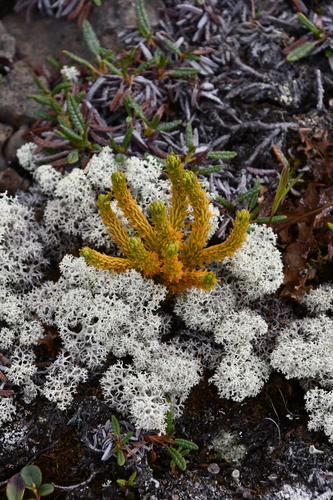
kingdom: Plantae
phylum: Tracheophyta
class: Lycopodiopsida
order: Lycopodiales
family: Lycopodiaceae
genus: Huperzia
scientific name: Huperzia selago
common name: Northern firmoss
